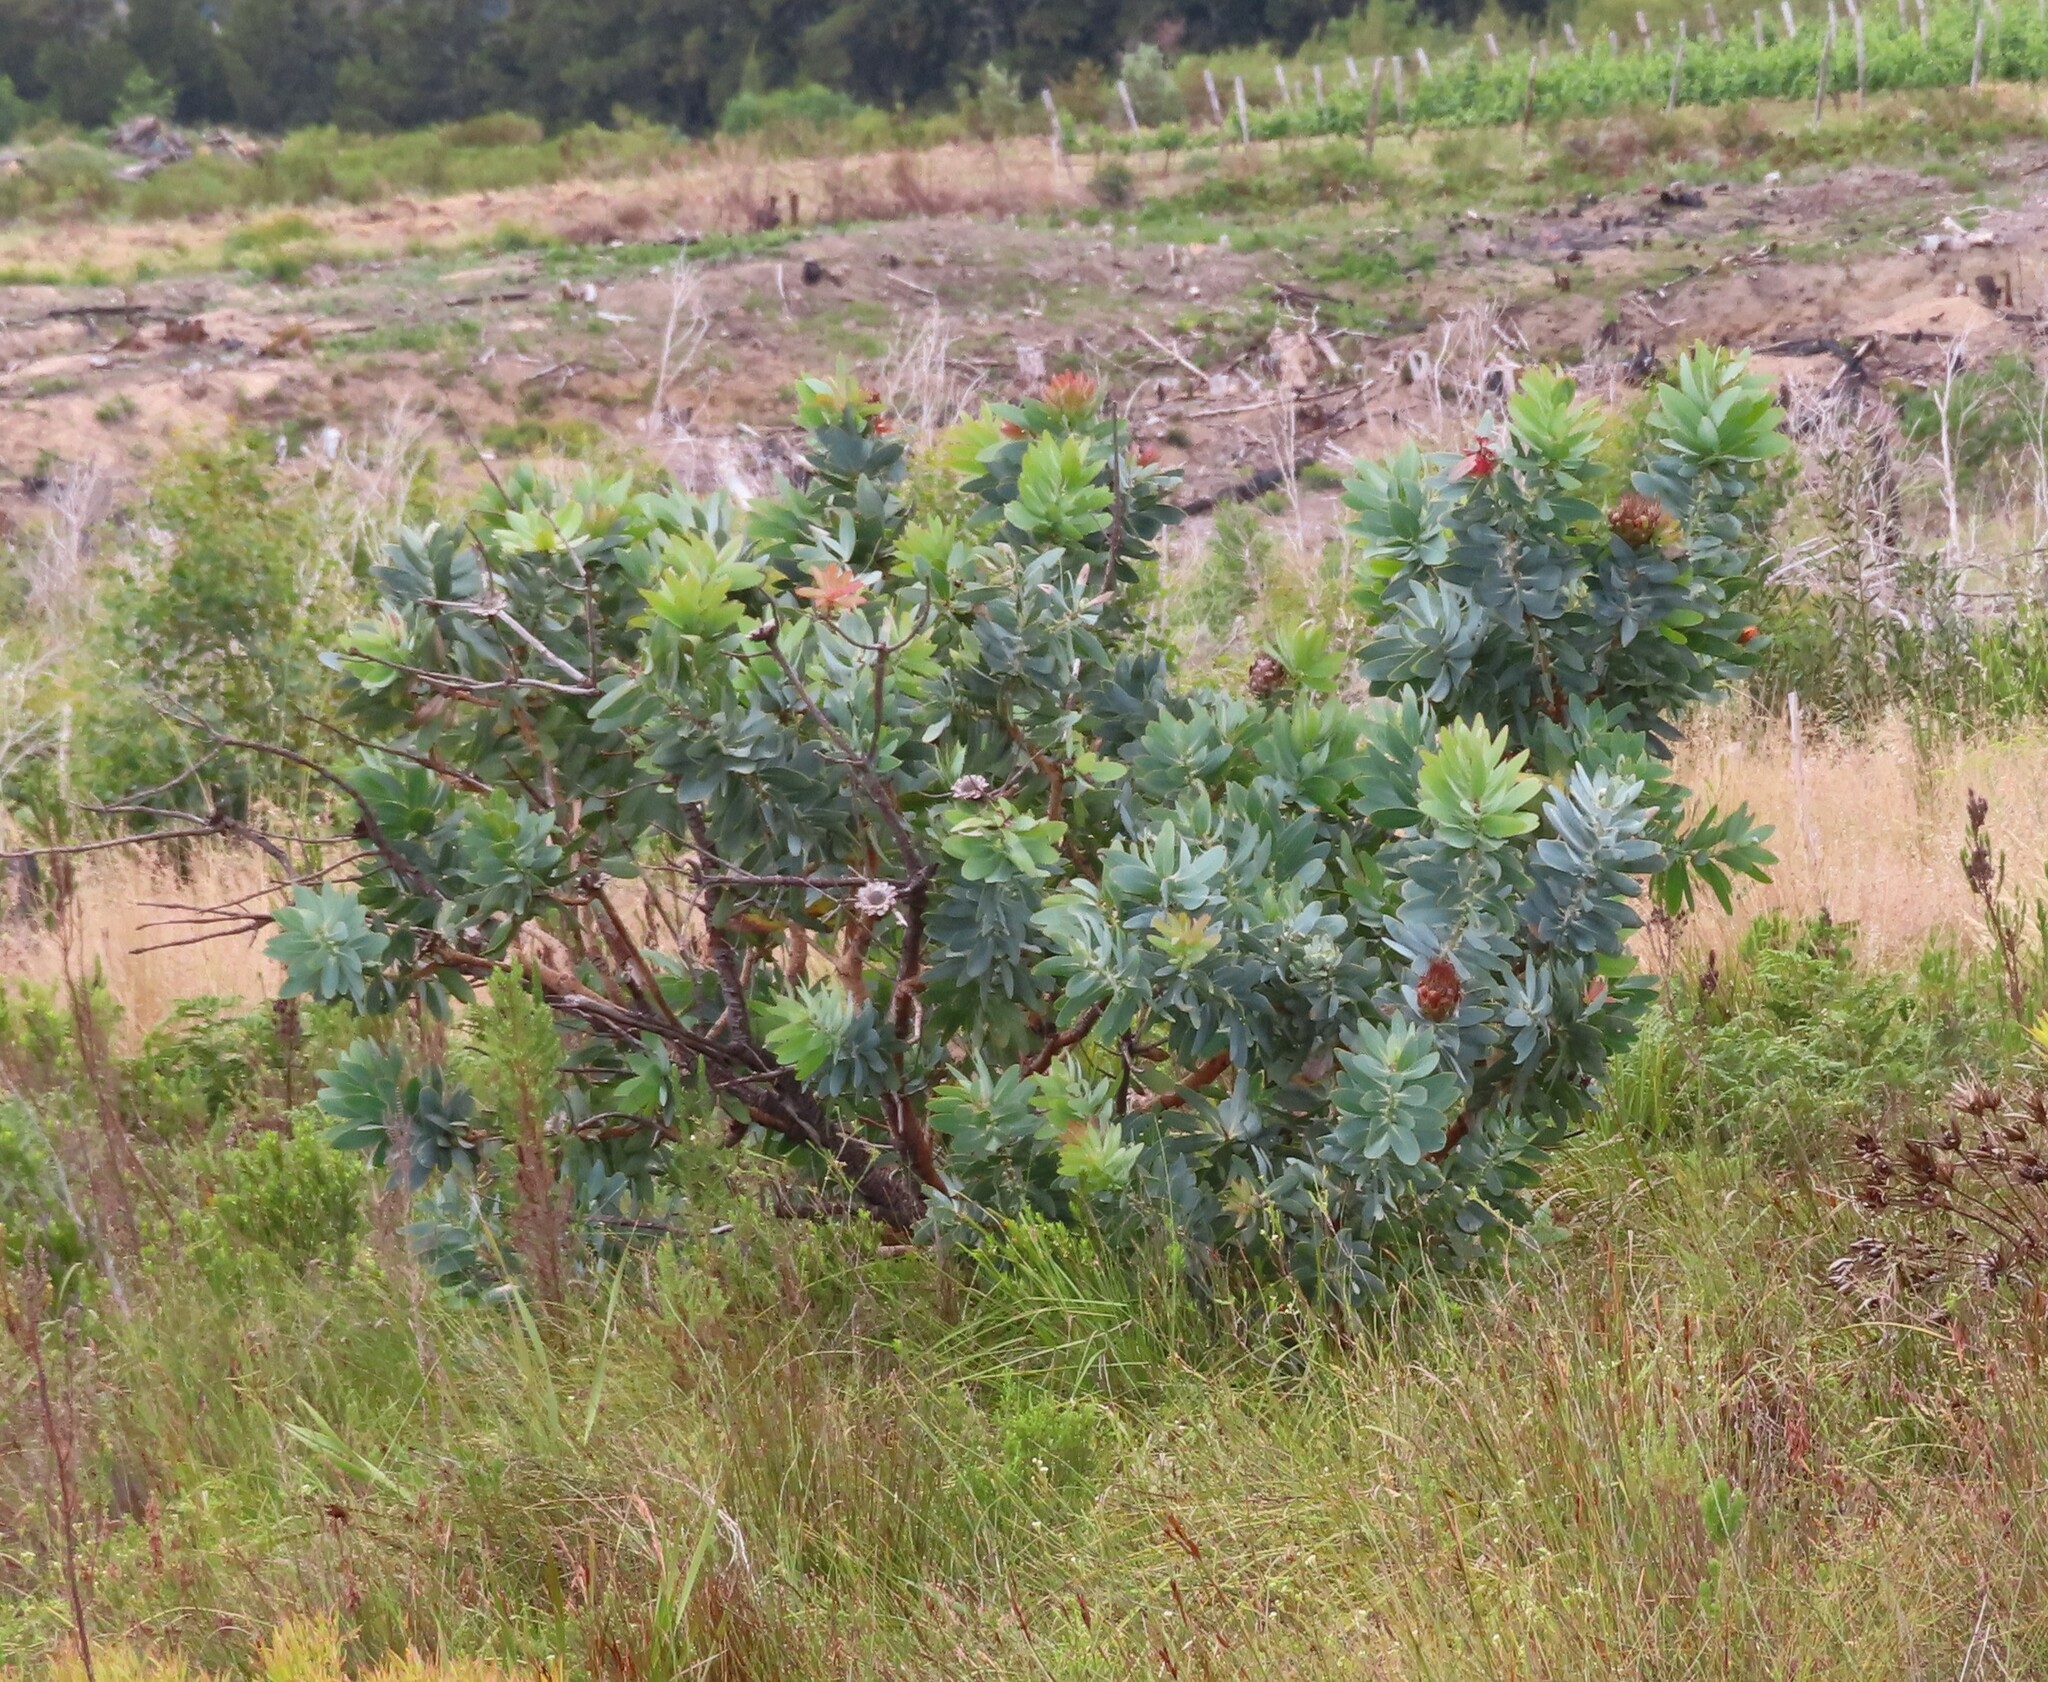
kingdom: Plantae
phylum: Tracheophyta
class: Magnoliopsida
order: Proteales
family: Proteaceae
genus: Protea
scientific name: Protea nitida
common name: Tree protea
